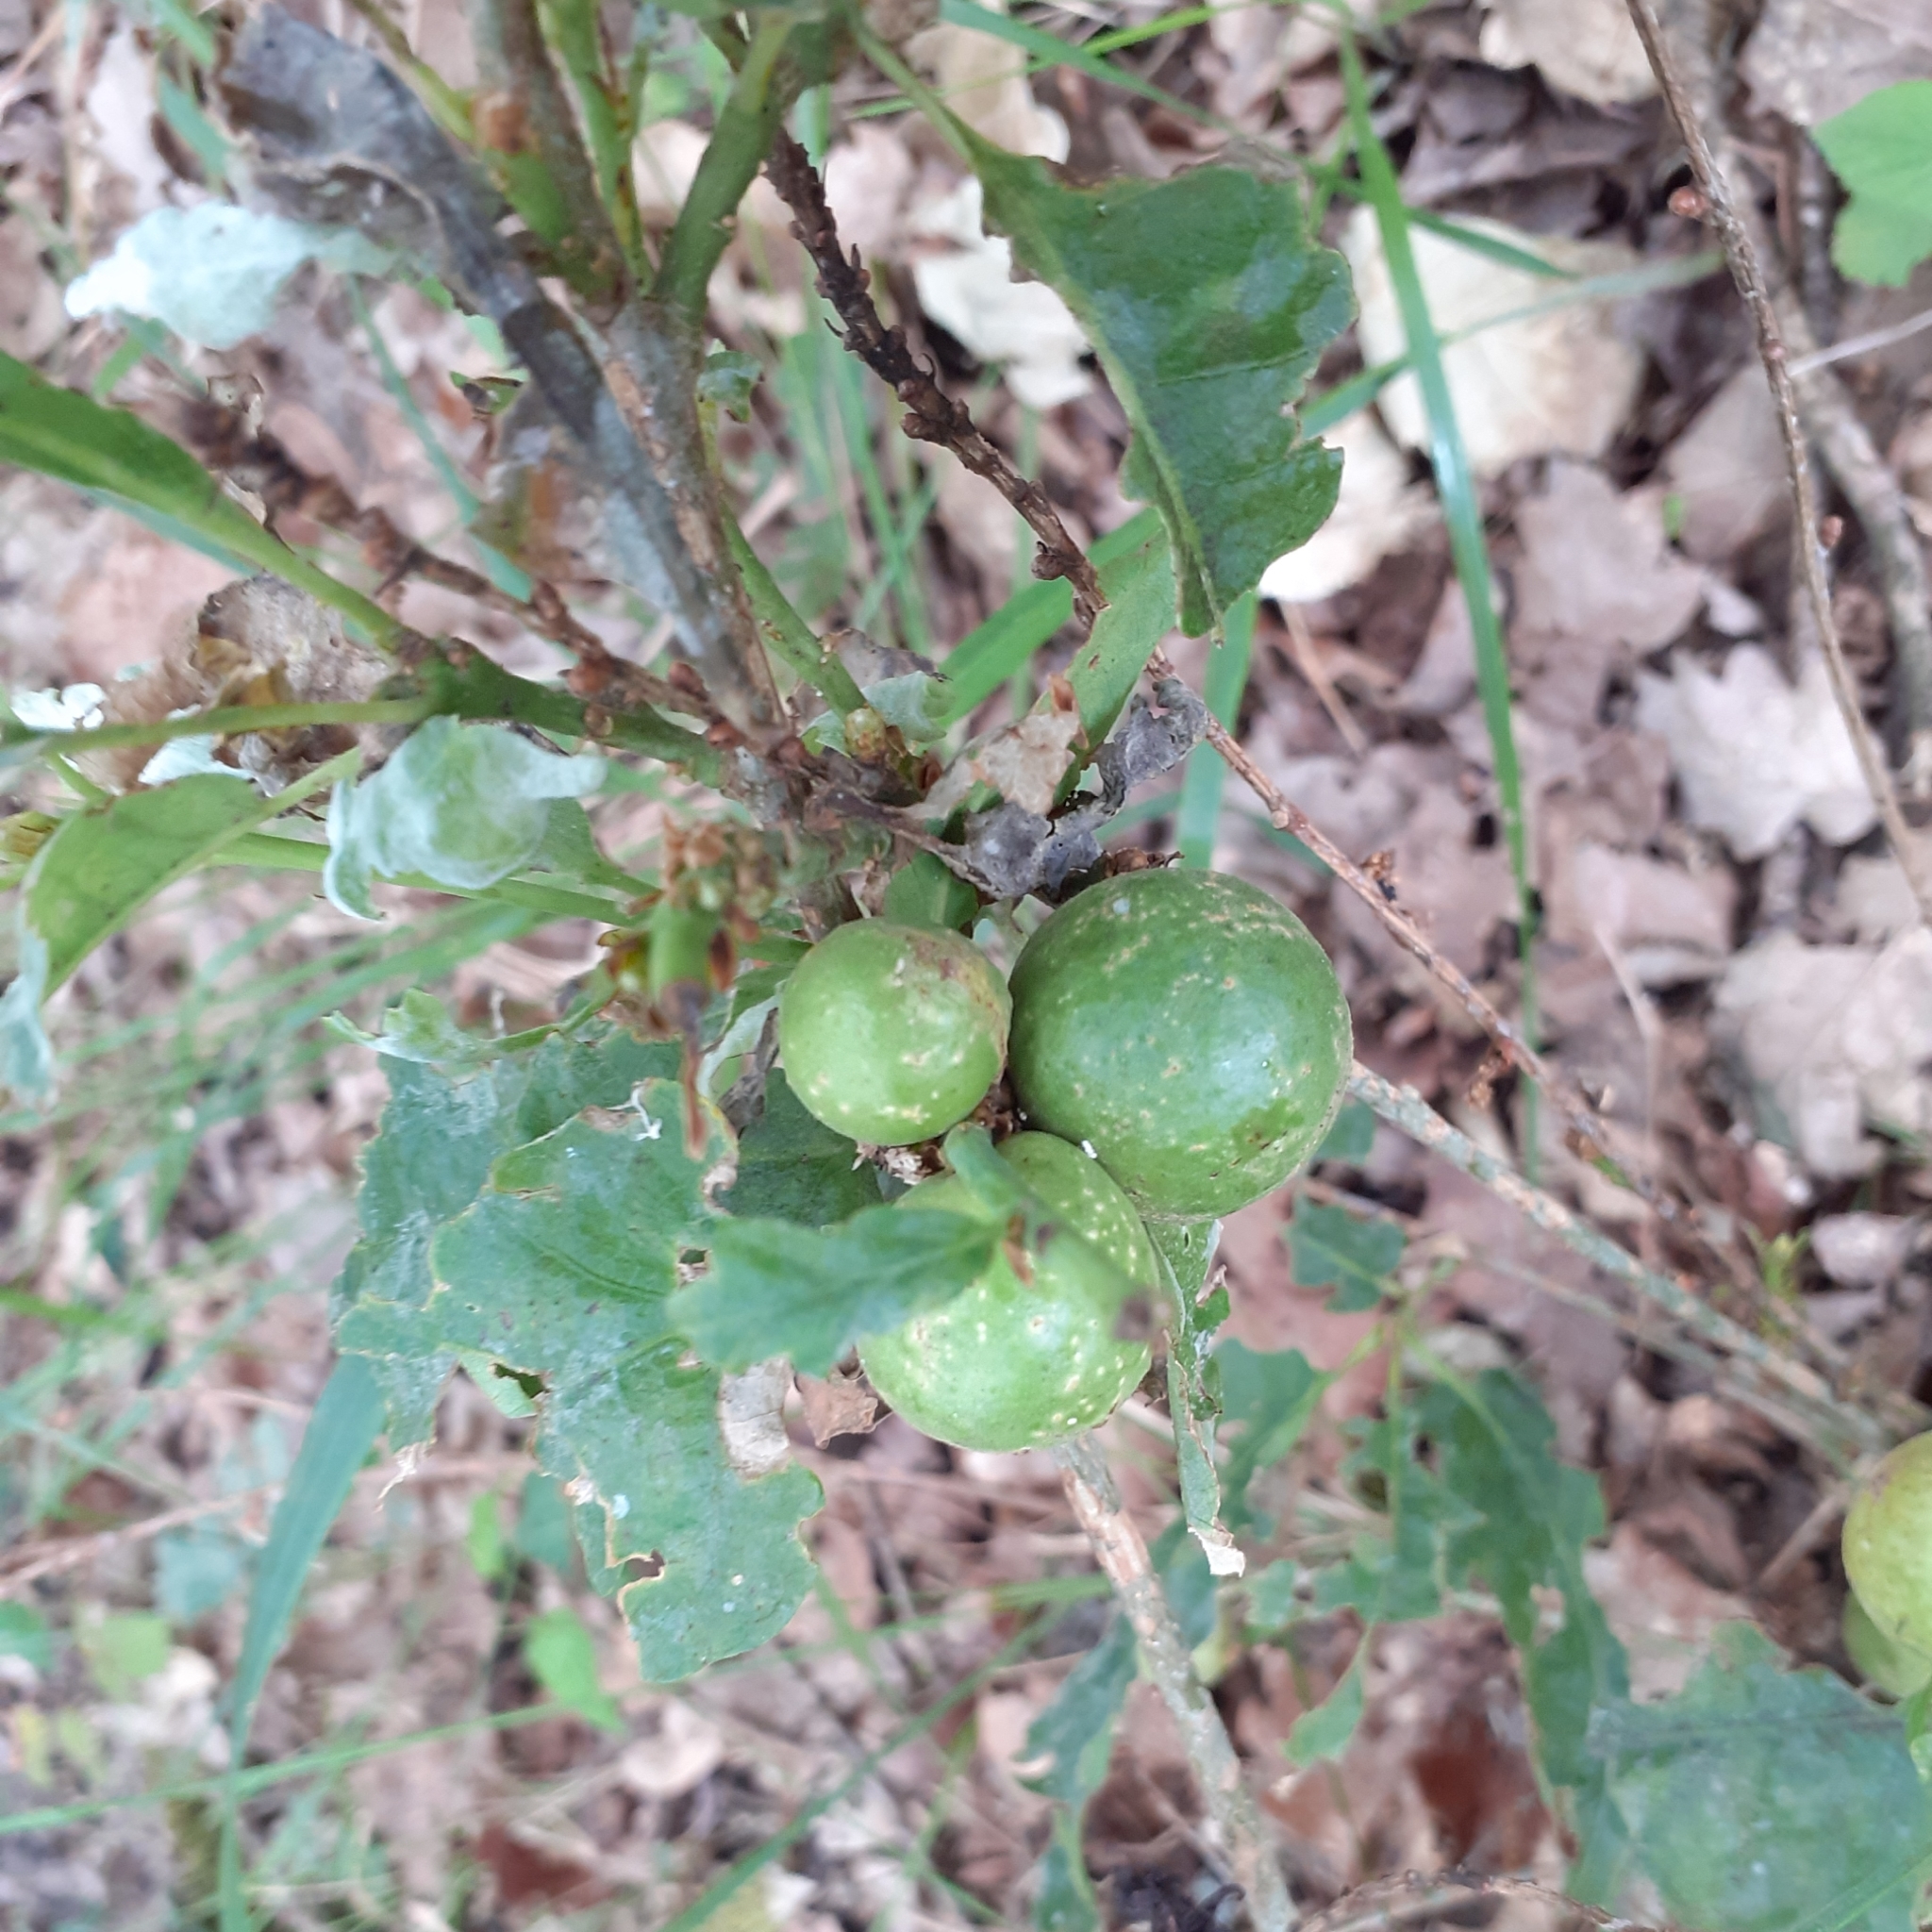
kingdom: Animalia
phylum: Arthropoda
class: Insecta
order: Hymenoptera
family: Cynipidae
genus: Andricus
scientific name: Andricus kollari
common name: Marble gall
